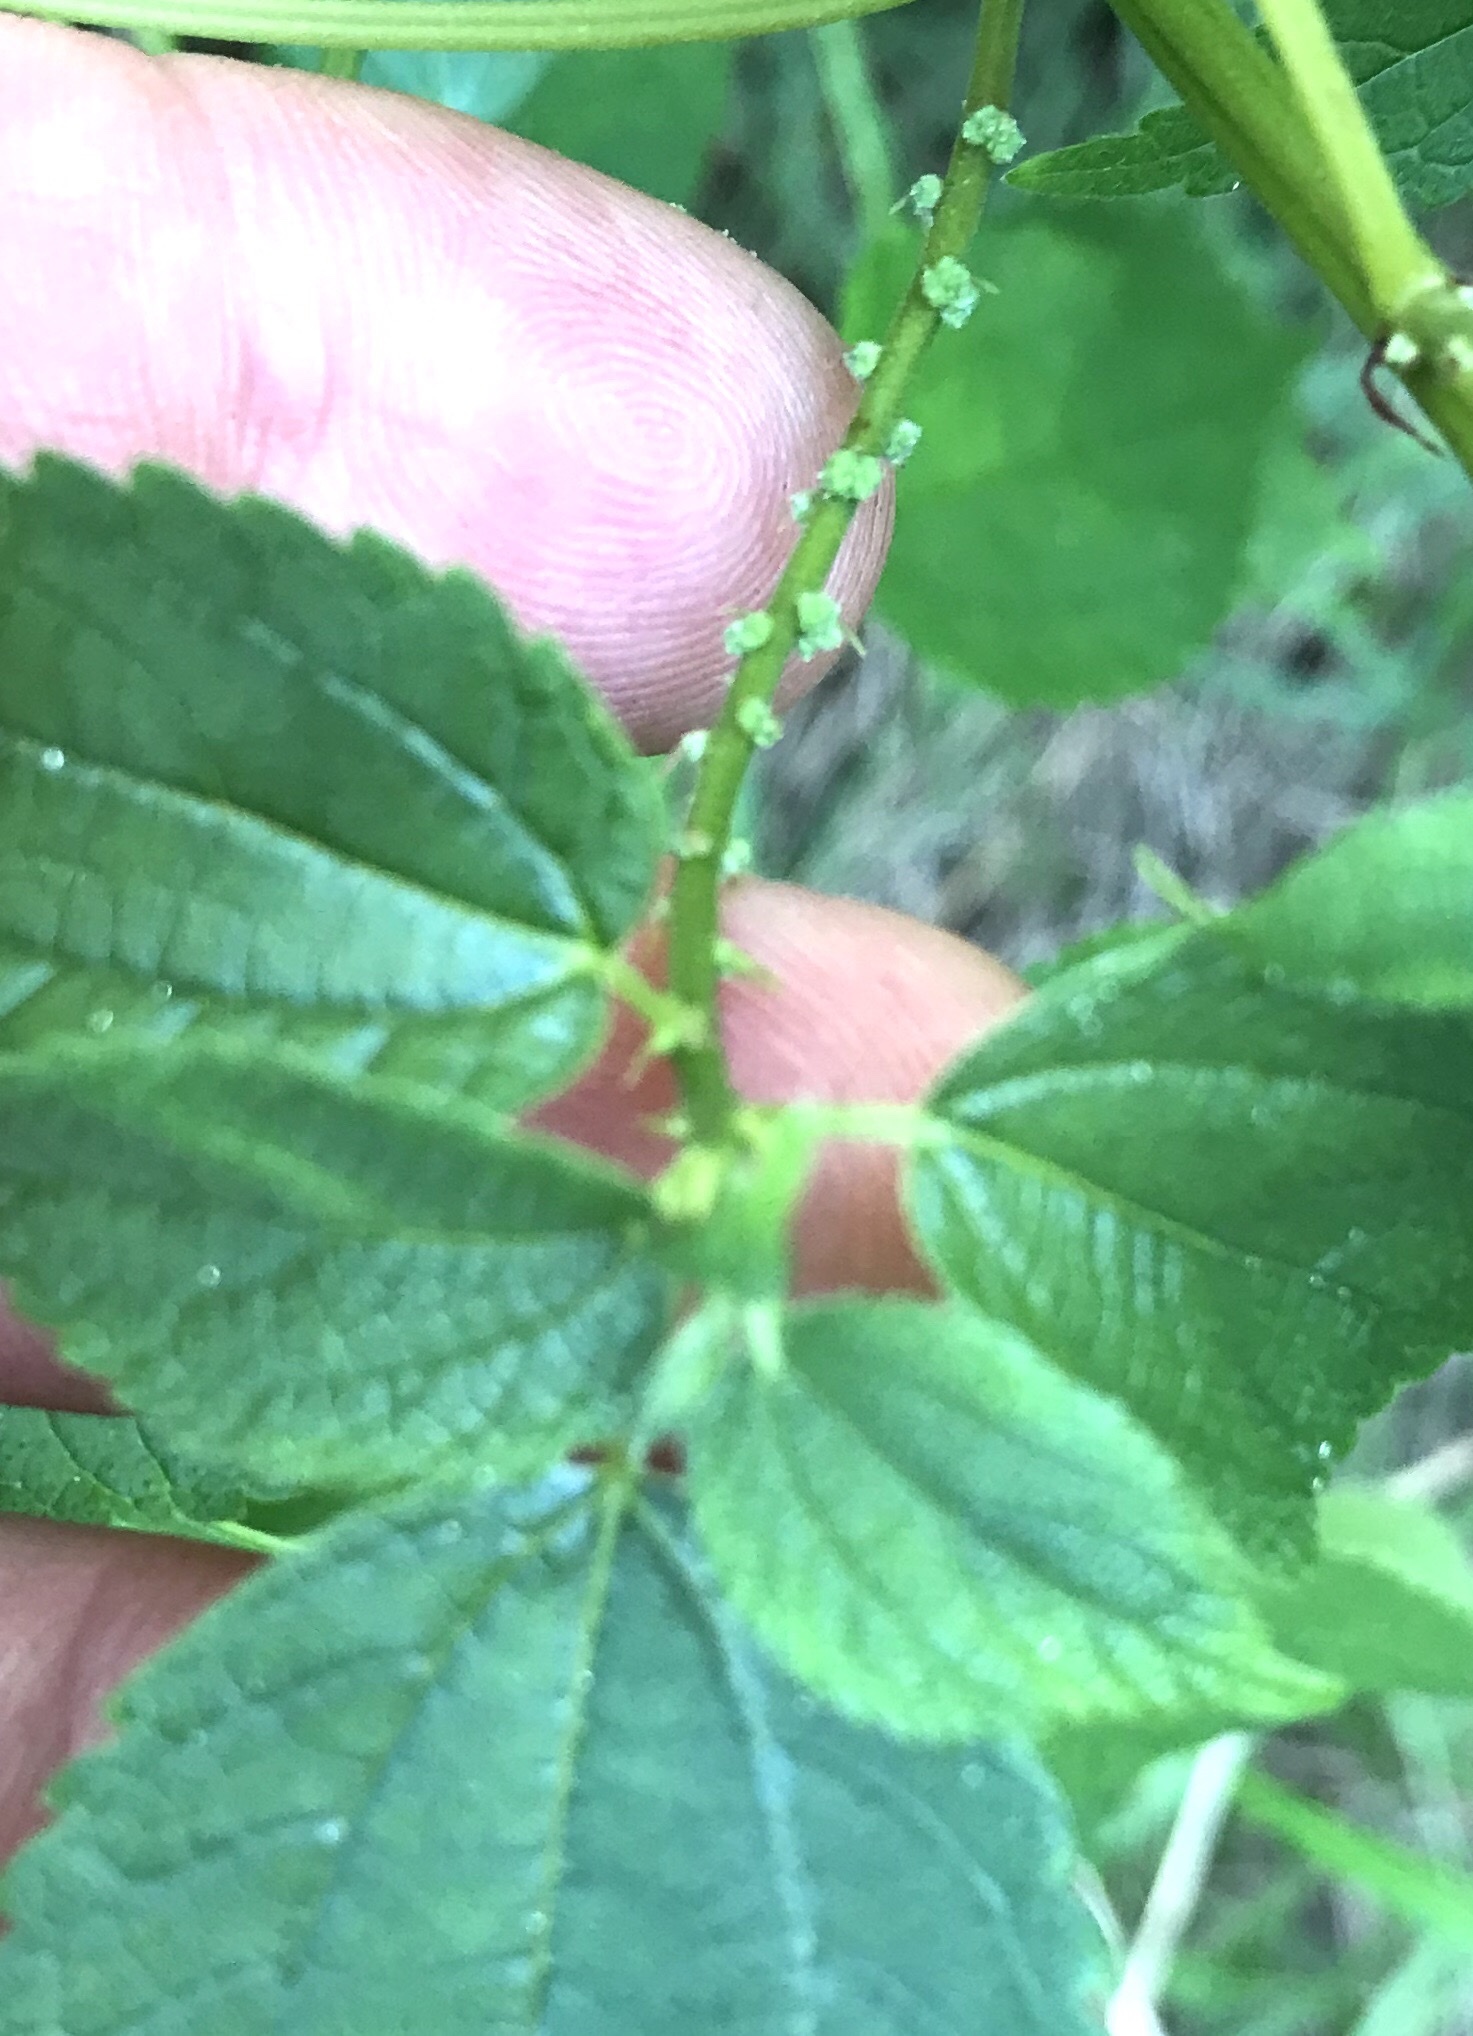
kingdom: Plantae
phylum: Tracheophyta
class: Magnoliopsida
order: Rosales
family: Urticaceae
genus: Boehmeria
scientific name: Boehmeria cylindrica
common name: Bog-hemp
